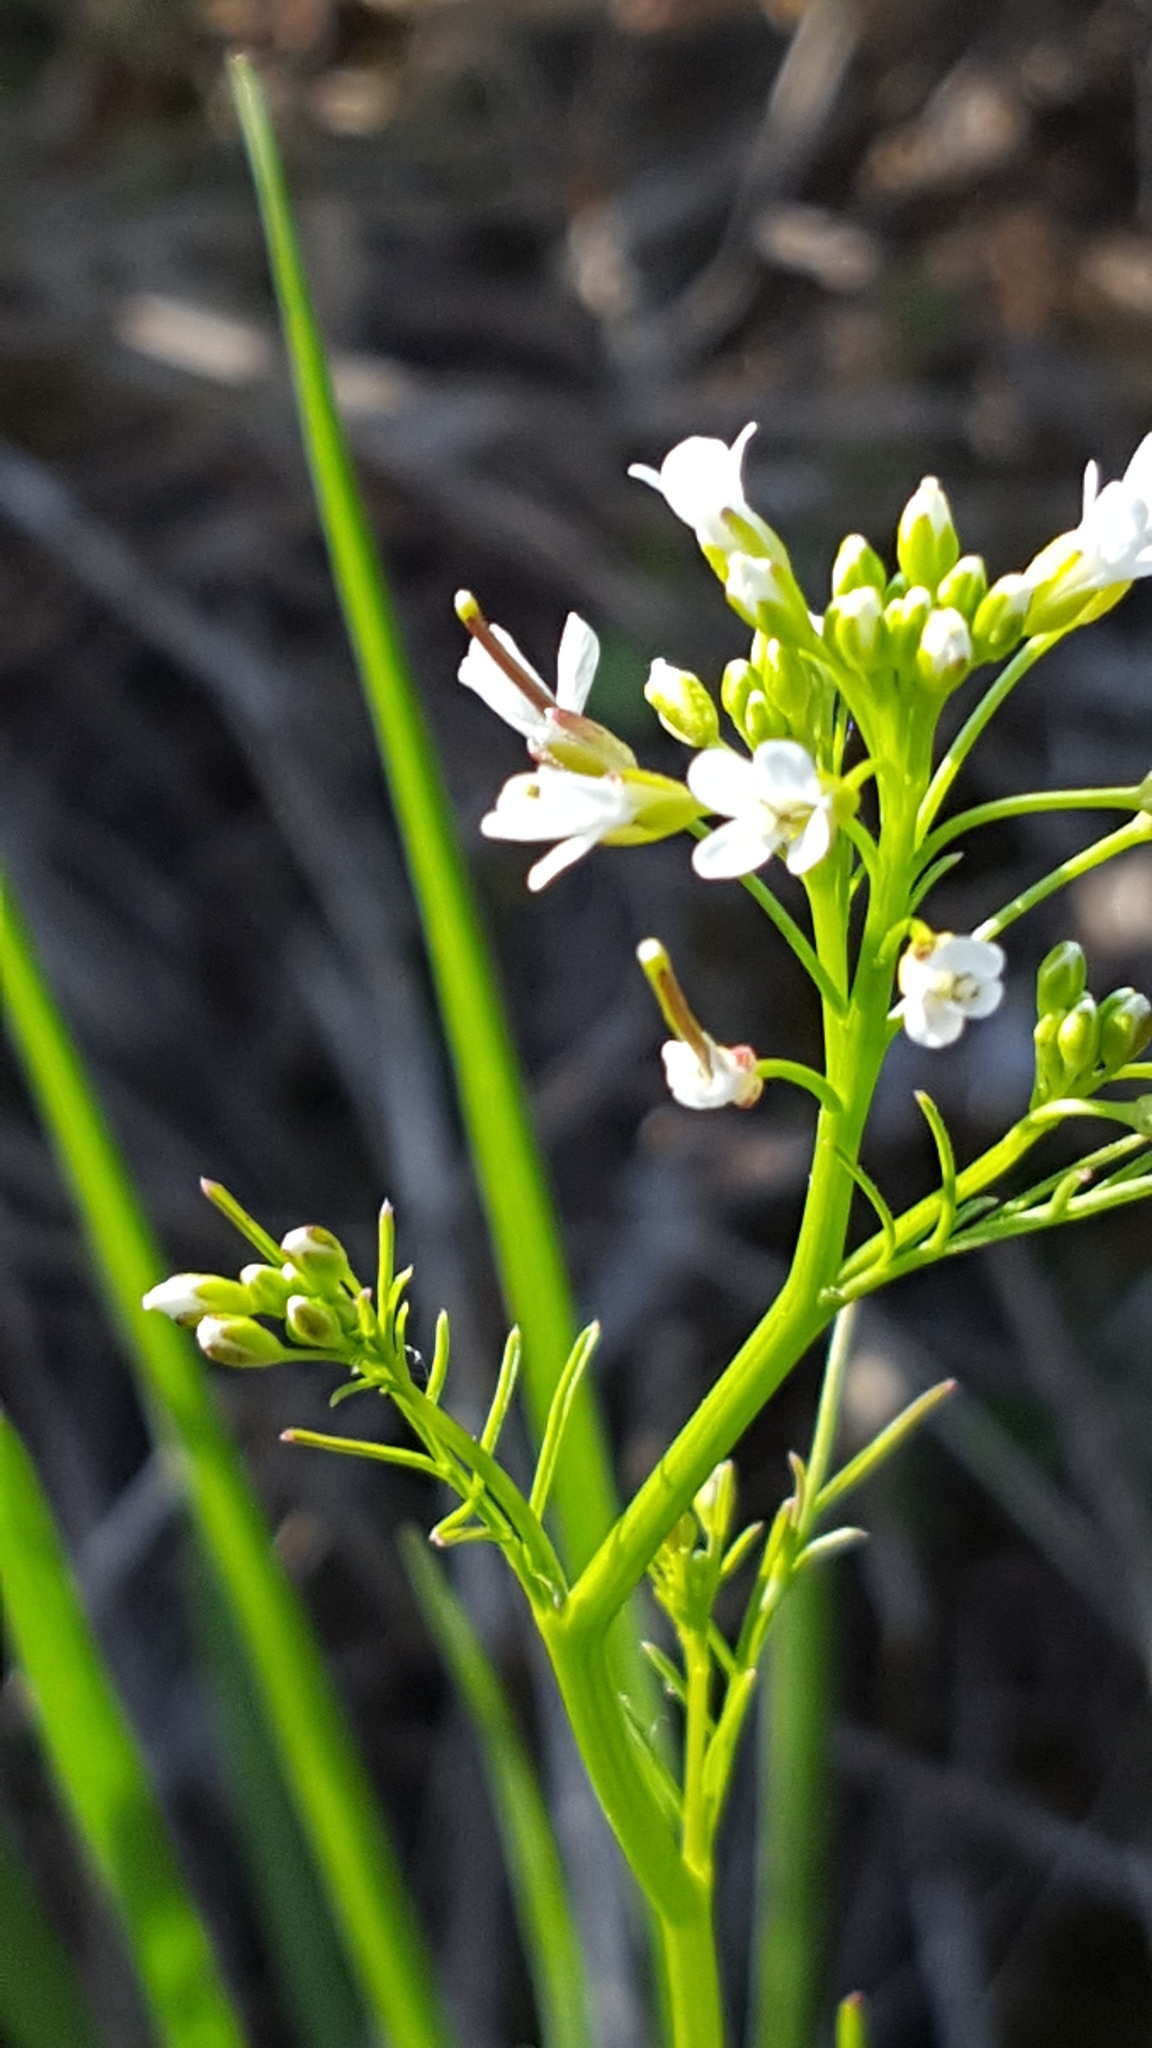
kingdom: Plantae
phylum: Tracheophyta
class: Magnoliopsida
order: Brassicales
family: Brassicaceae
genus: Cardamine
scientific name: Cardamine pensylvanica
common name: Pennsylvania bittercress
